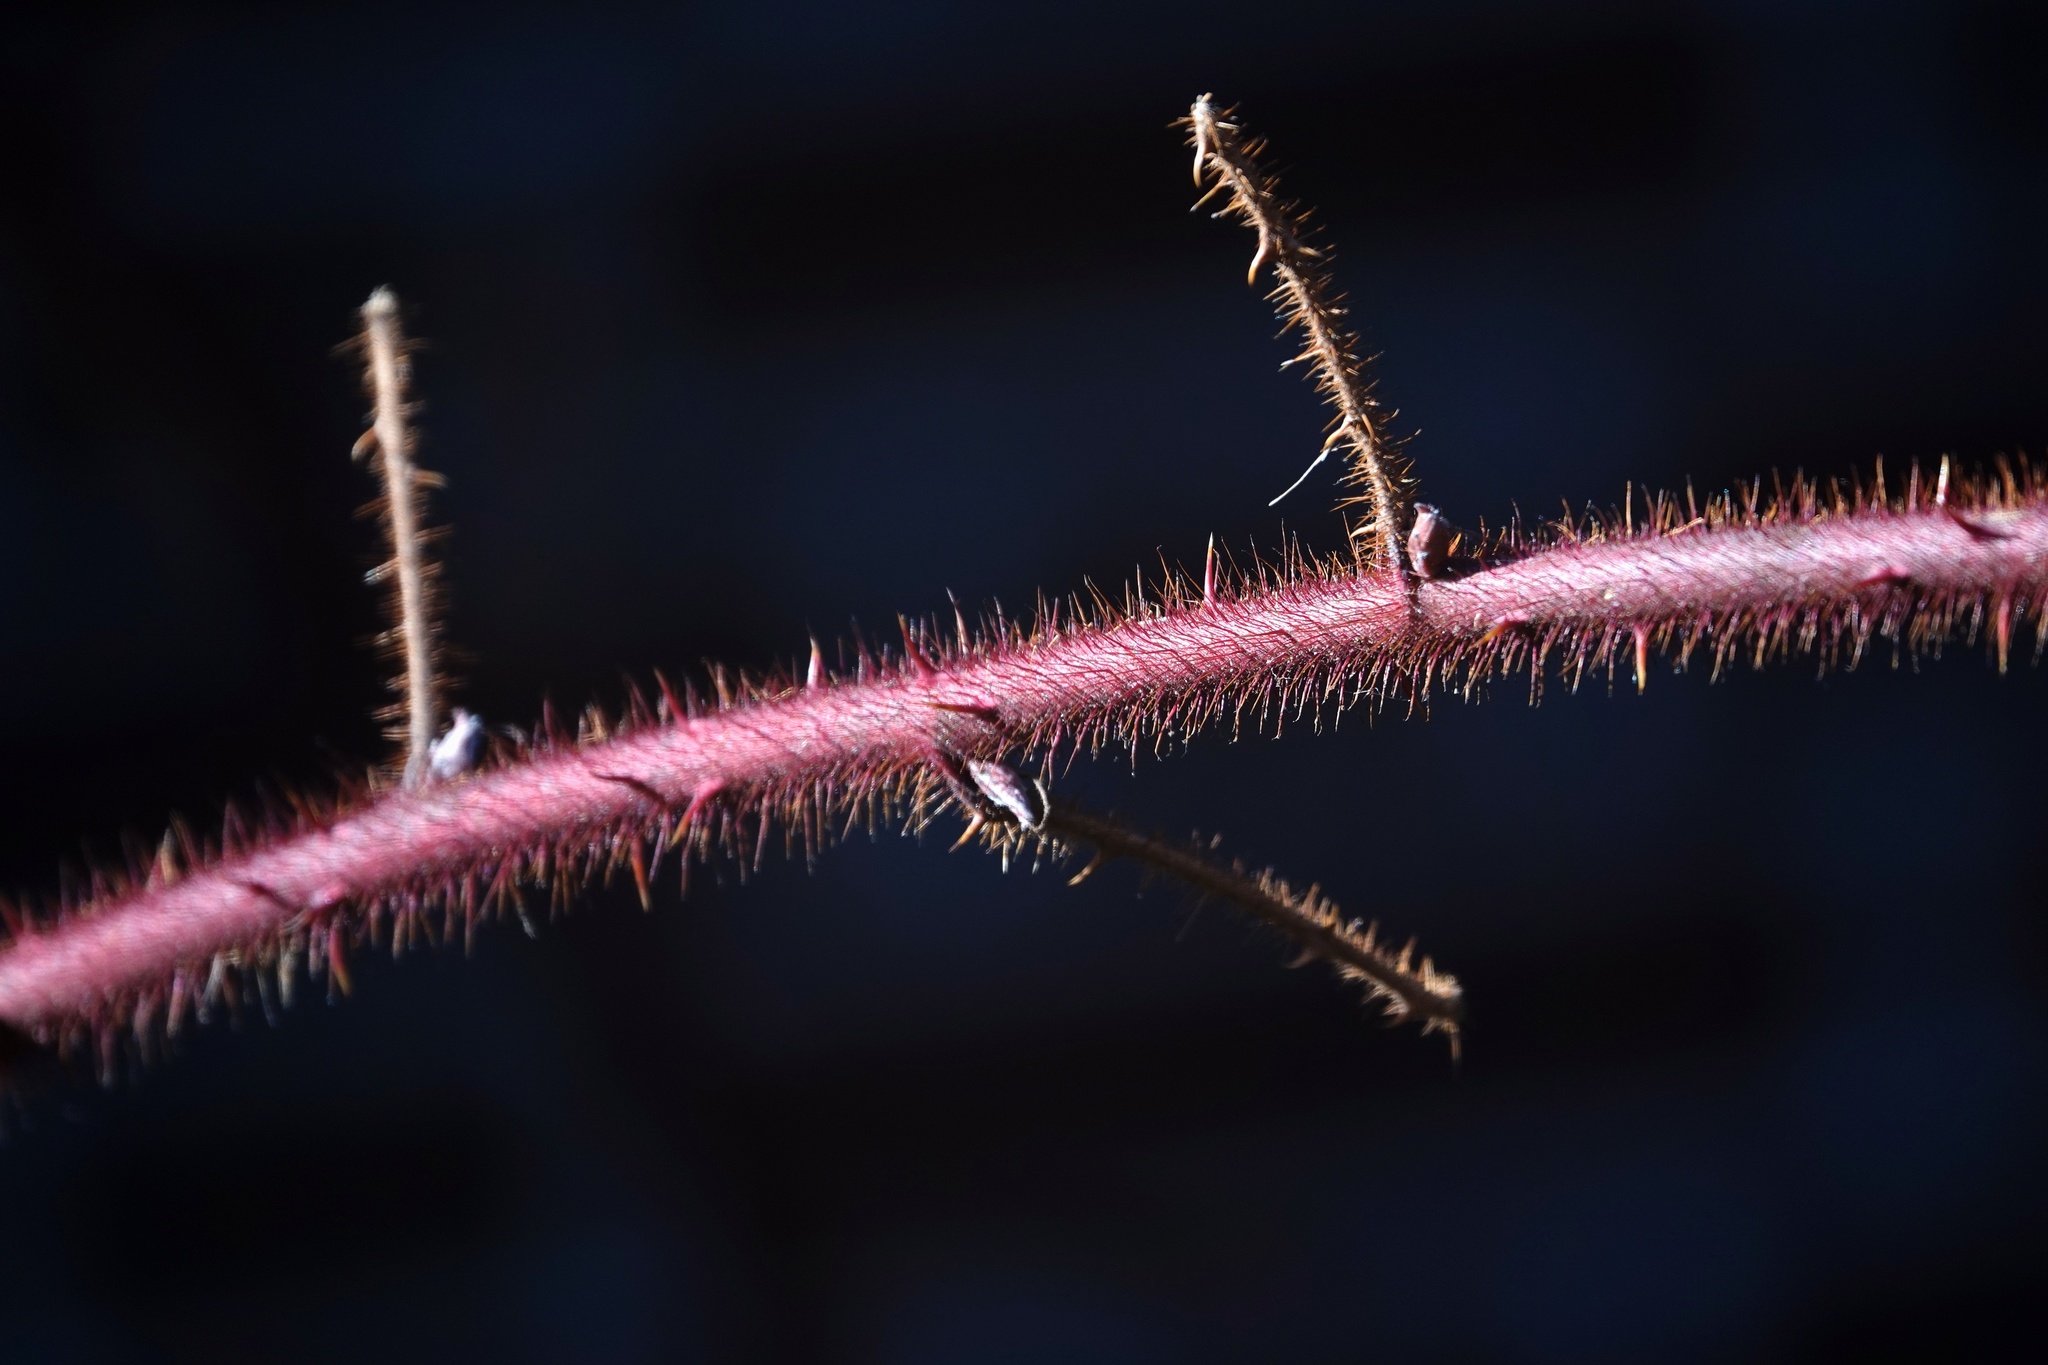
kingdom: Plantae
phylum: Tracheophyta
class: Magnoliopsida
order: Rosales
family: Rosaceae
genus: Rubus
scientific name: Rubus phoenicolasius
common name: Japanese wineberry
